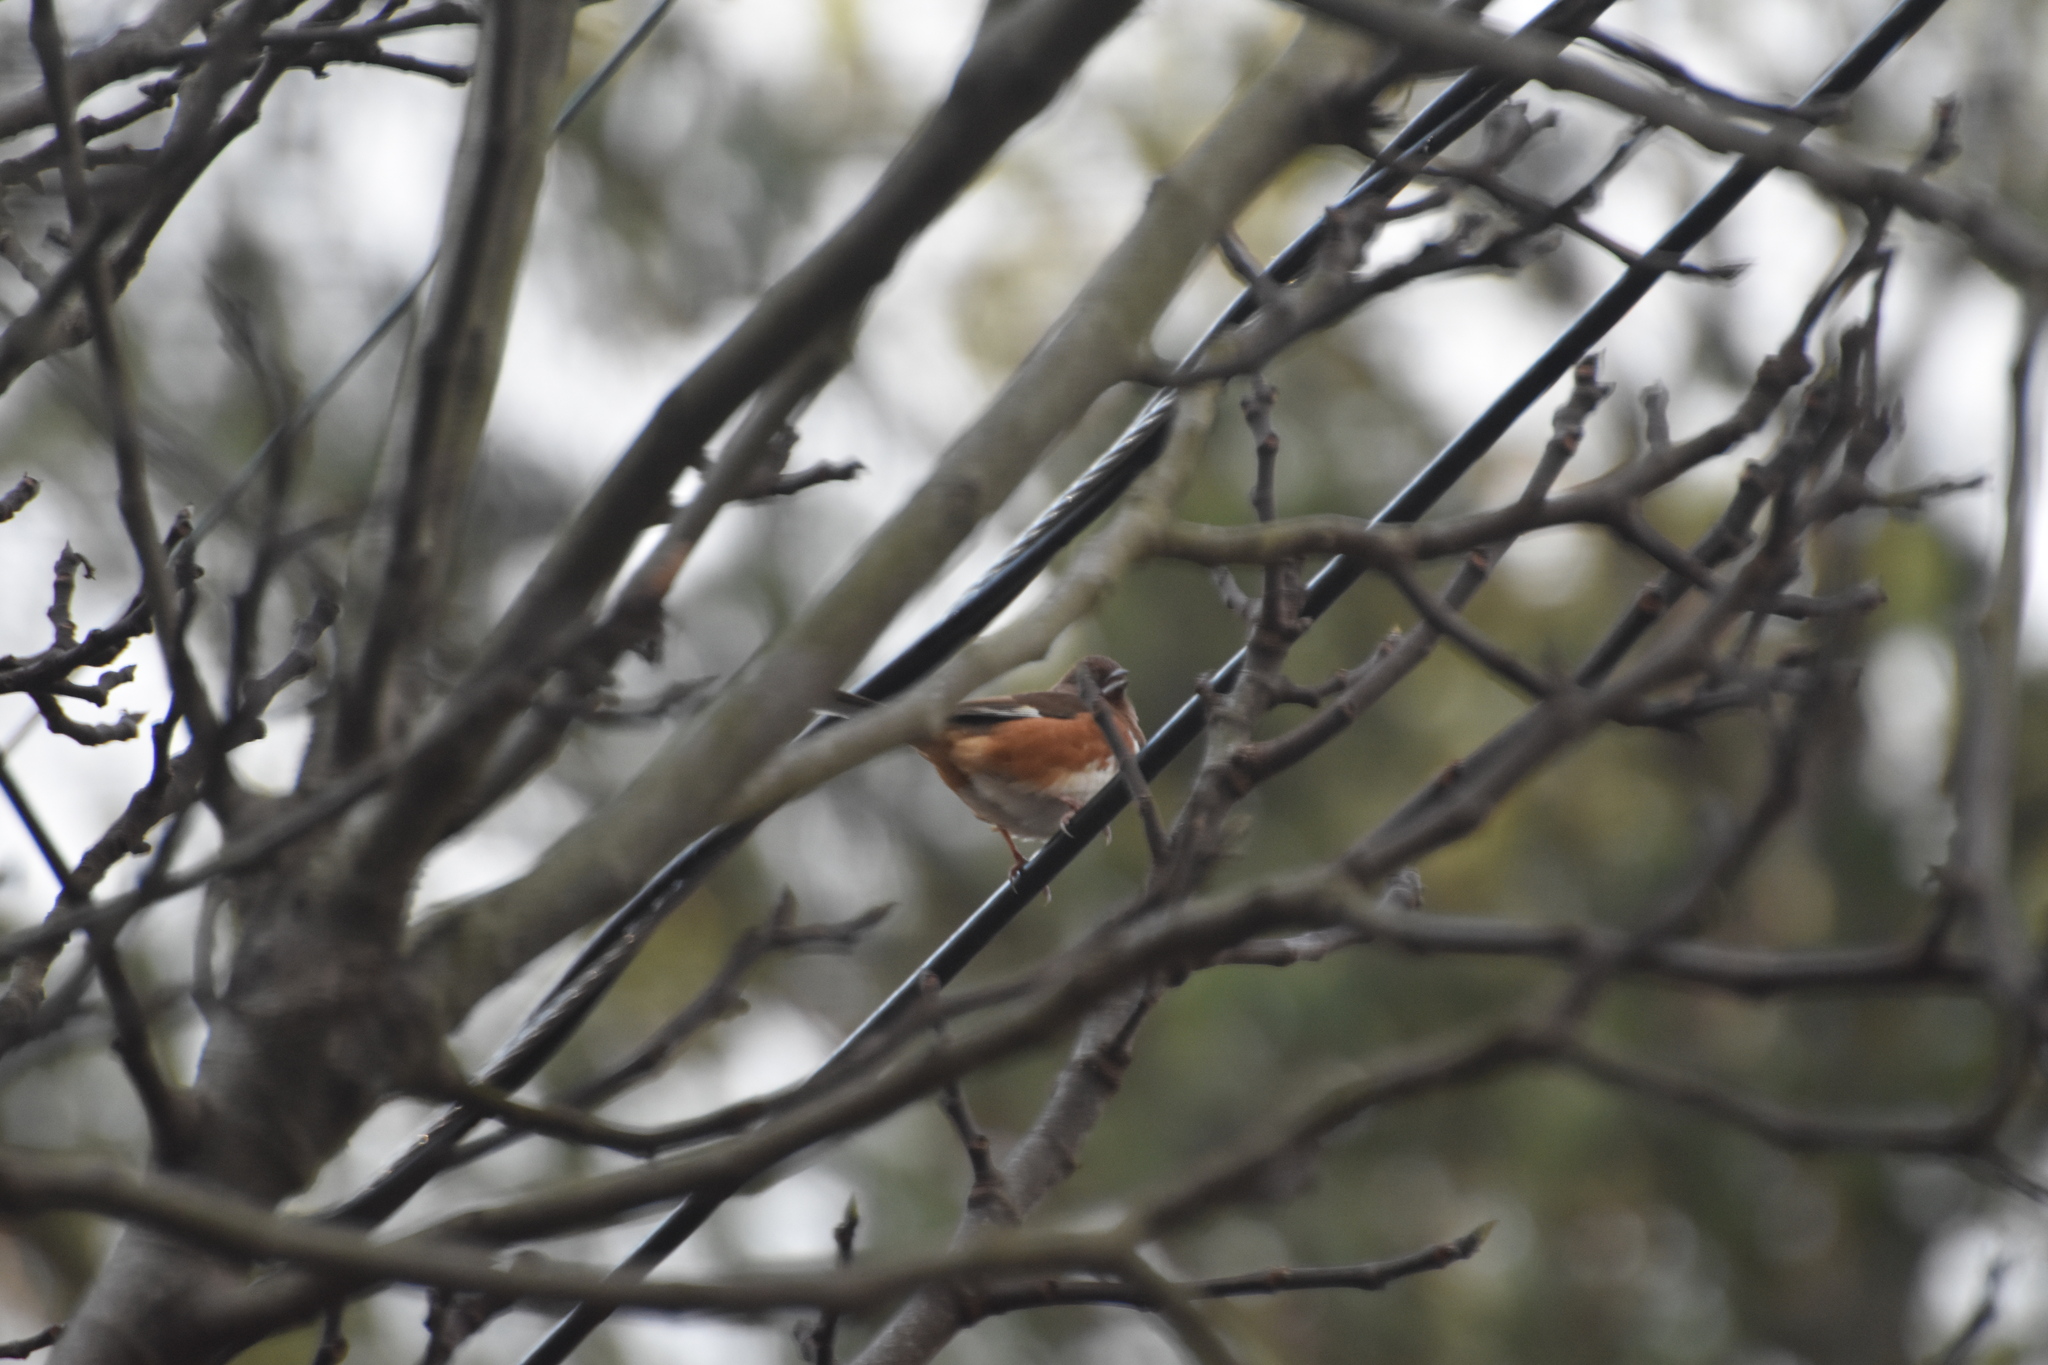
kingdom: Animalia
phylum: Chordata
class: Aves
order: Passeriformes
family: Passerellidae
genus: Pipilo
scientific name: Pipilo erythrophthalmus
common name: Eastern towhee
